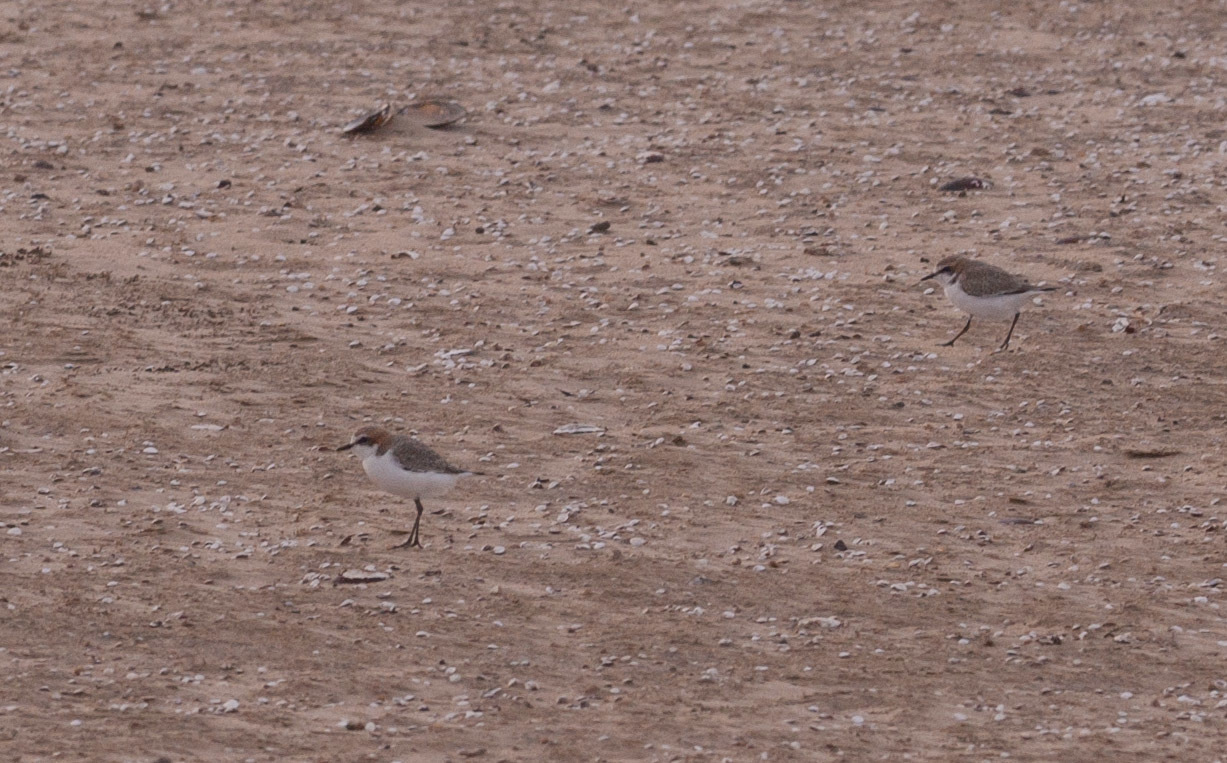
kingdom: Animalia
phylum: Chordata
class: Aves
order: Charadriiformes
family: Charadriidae
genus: Anarhynchus
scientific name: Anarhynchus
